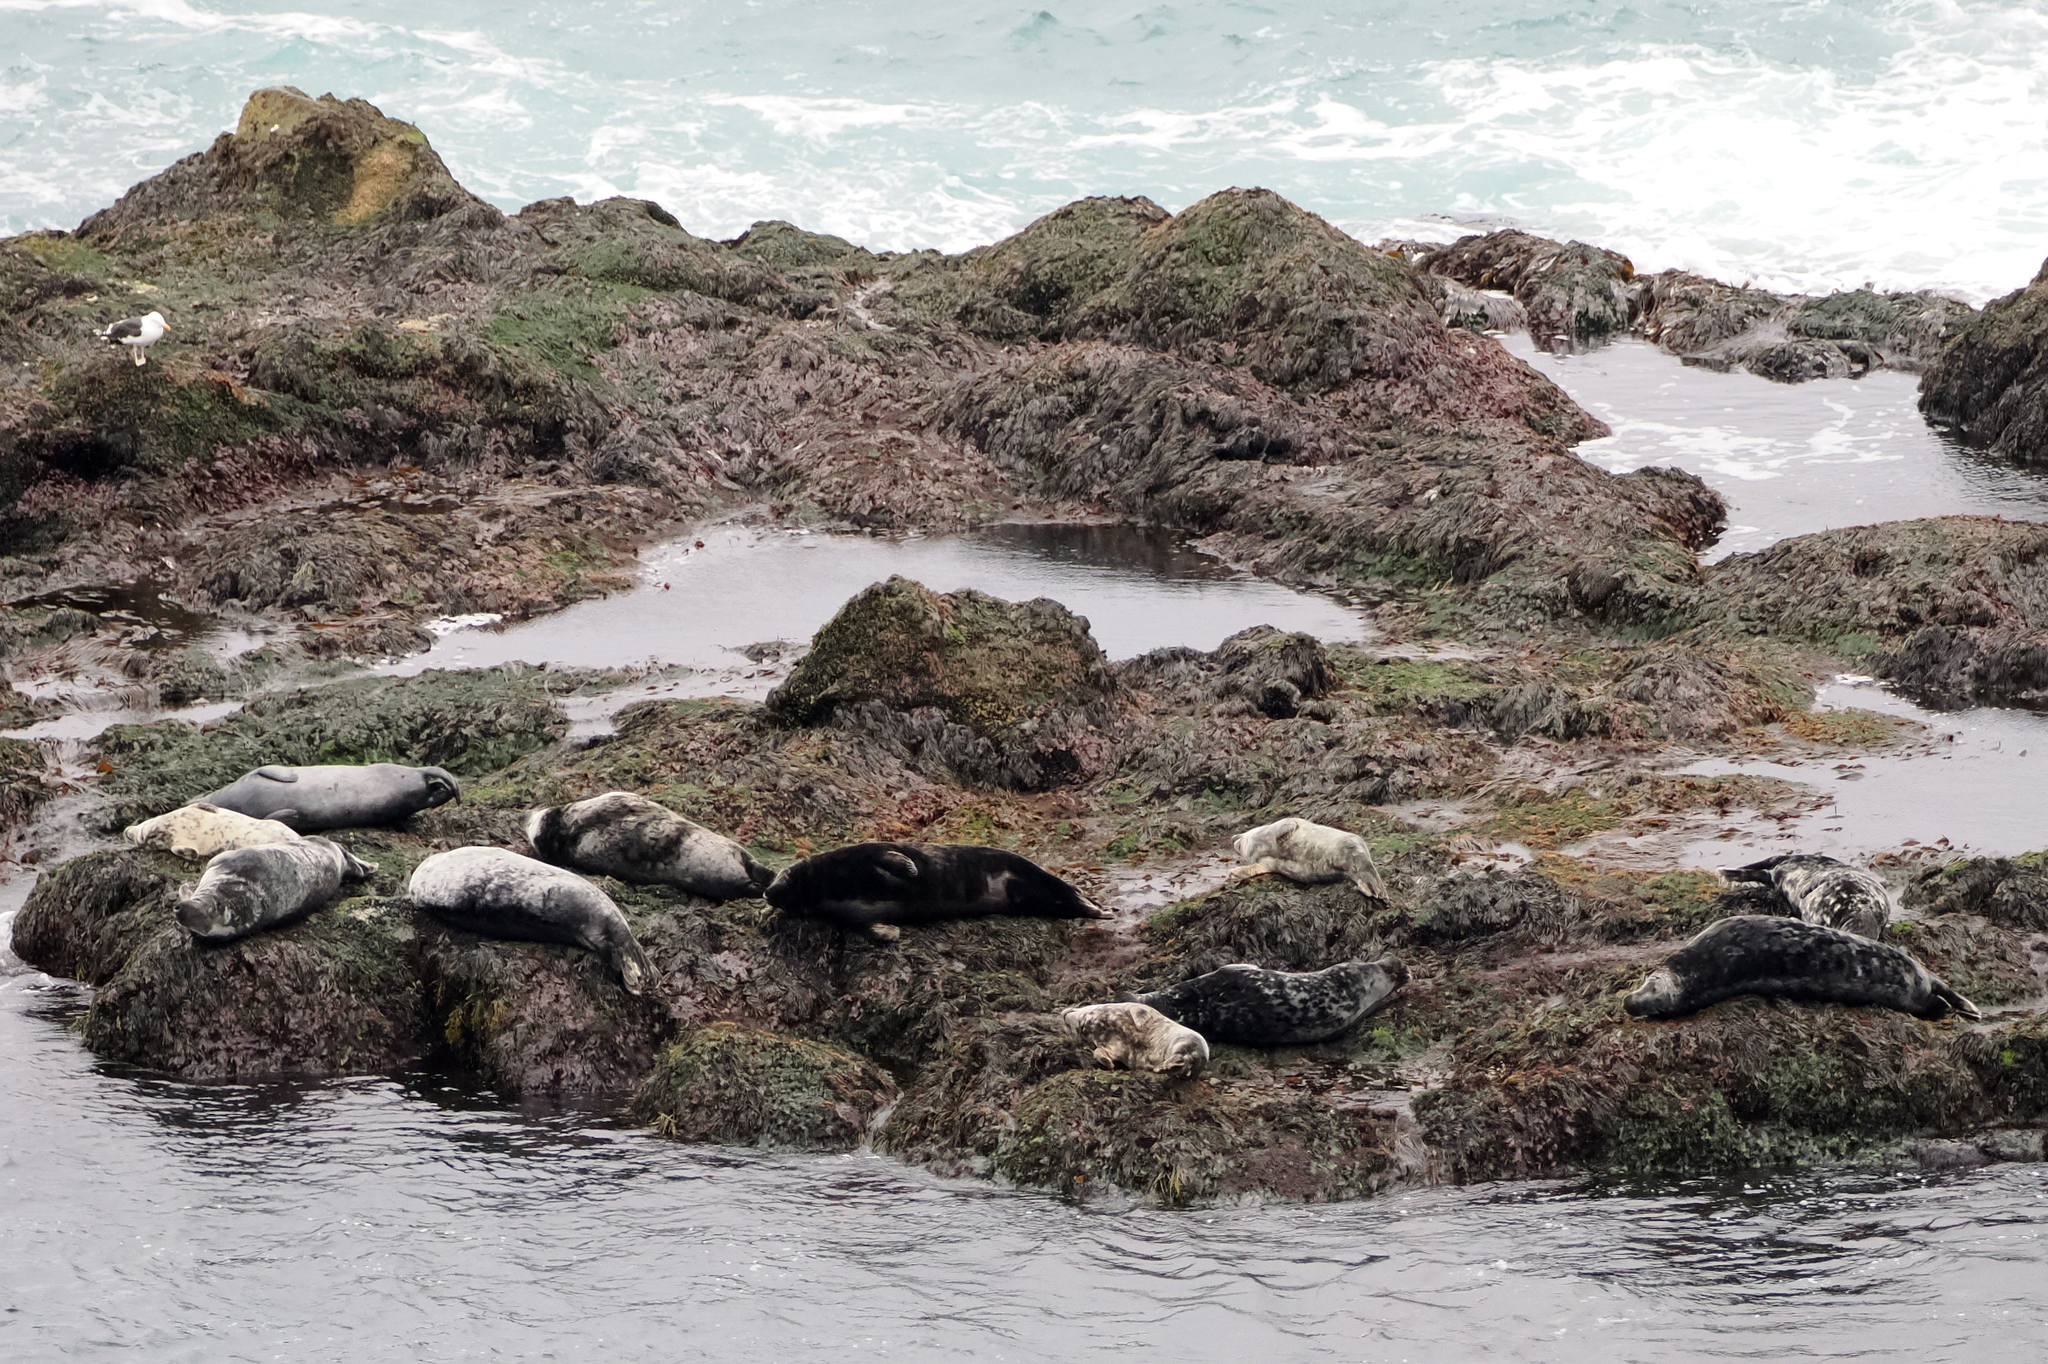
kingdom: Animalia
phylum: Chordata
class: Mammalia
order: Carnivora
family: Phocidae
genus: Halichoerus
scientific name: Halichoerus grypus
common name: Grey seal
